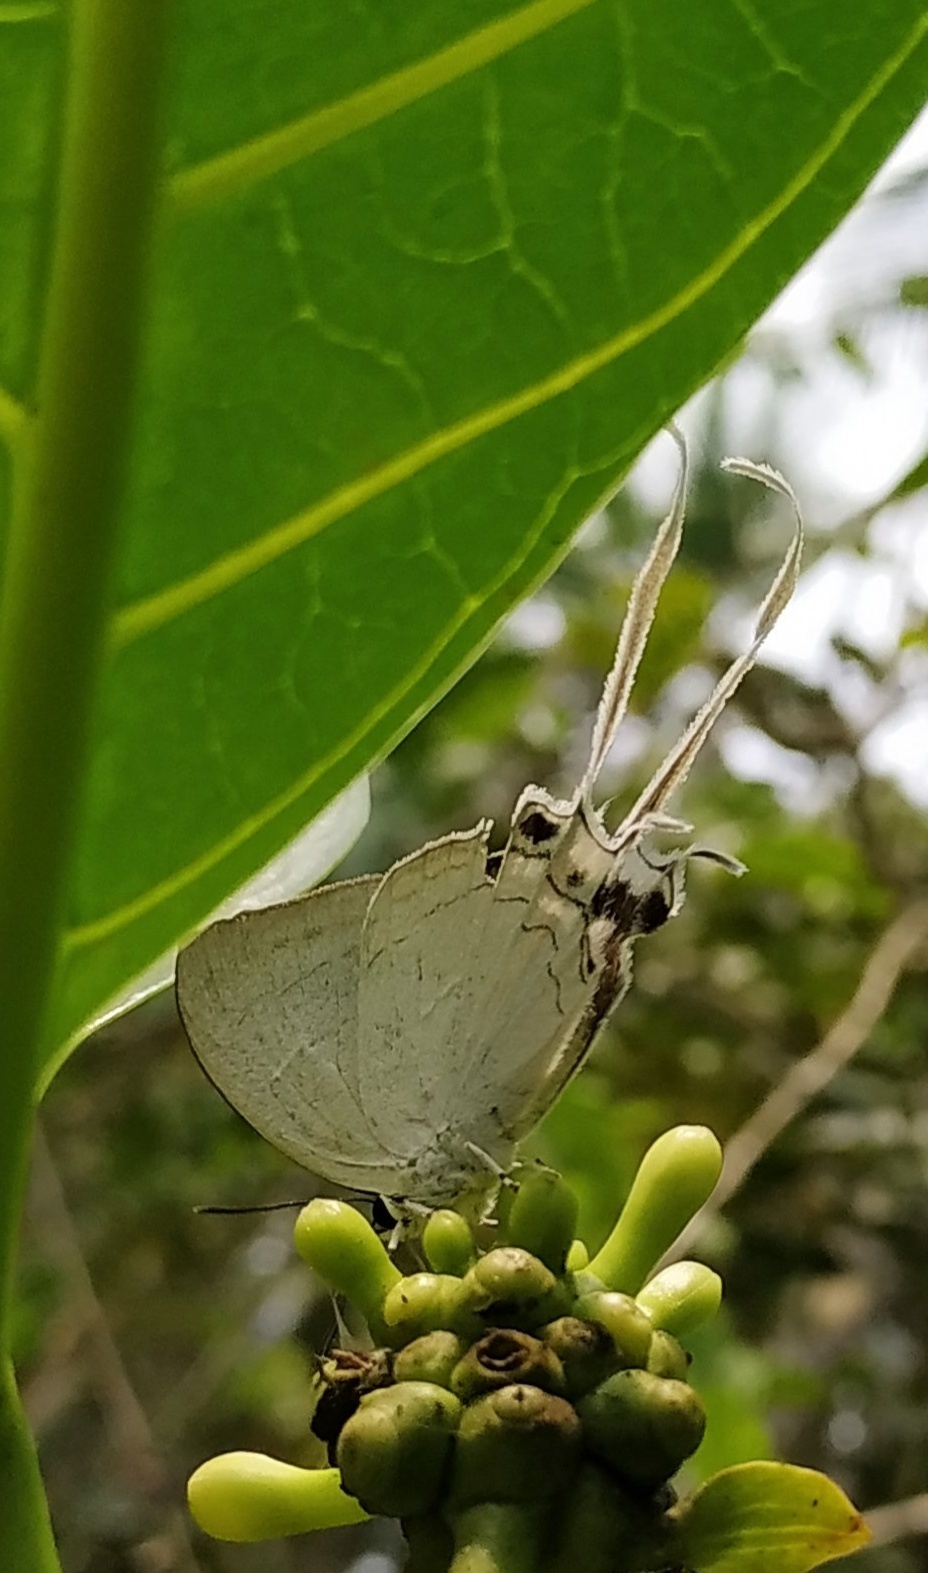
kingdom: Animalia
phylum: Arthropoda
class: Insecta
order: Lepidoptera
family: Lycaenidae
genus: Cheritra
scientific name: Cheritra freja
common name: Common imperial
